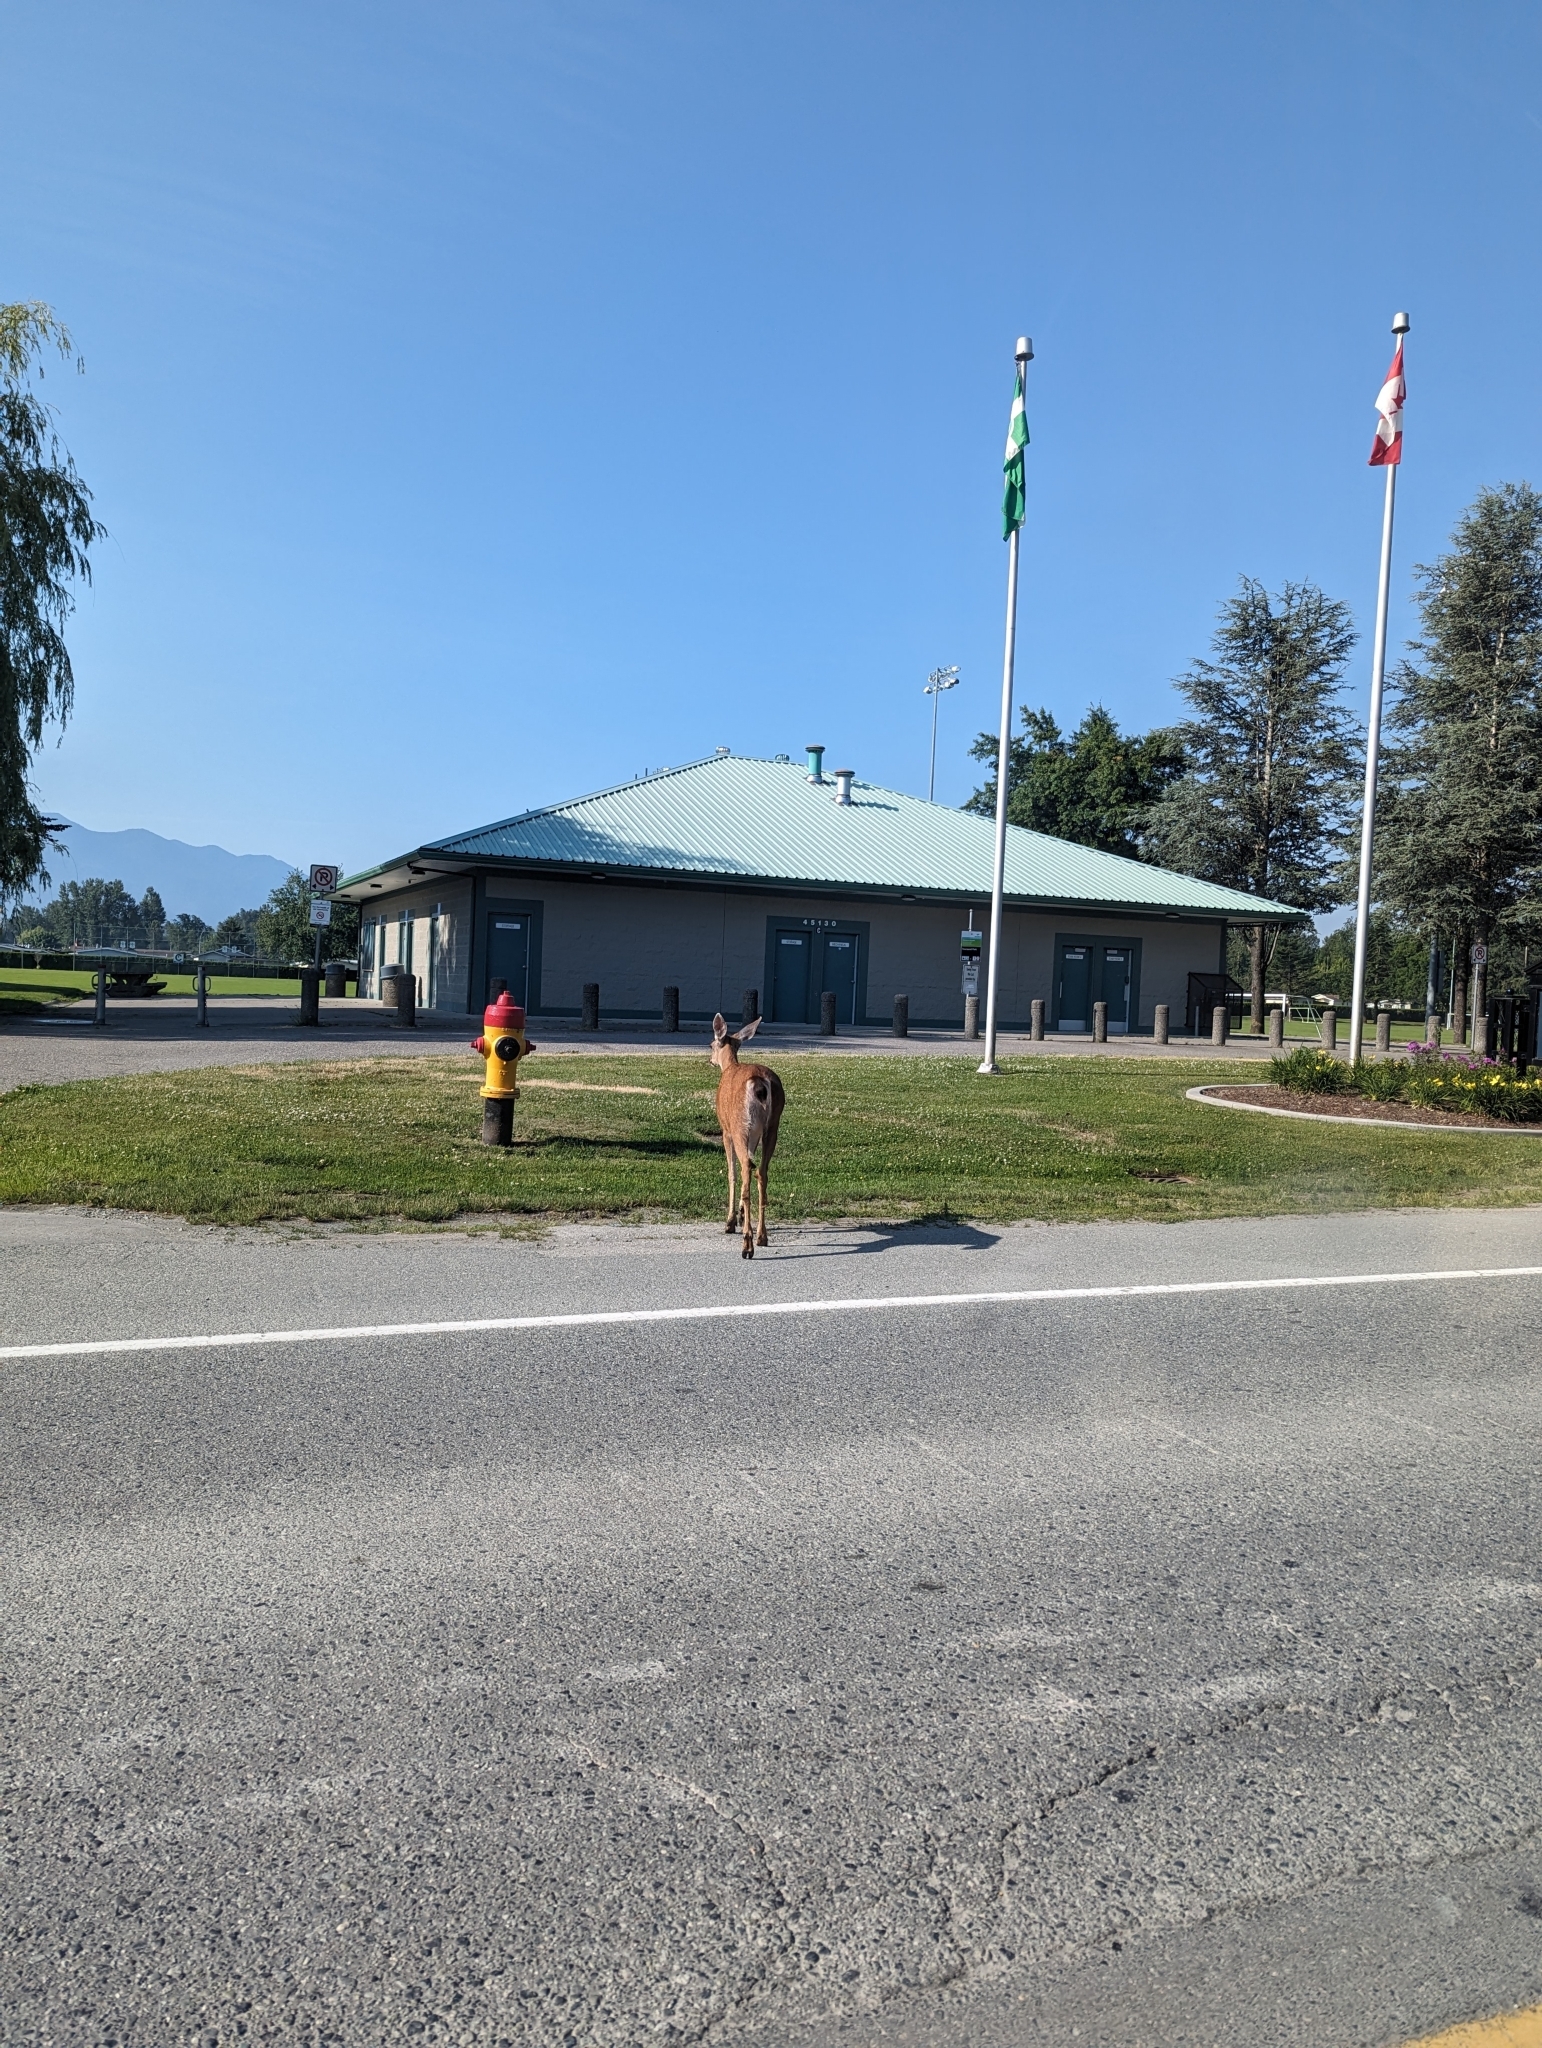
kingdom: Animalia
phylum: Chordata
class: Mammalia
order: Artiodactyla
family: Cervidae
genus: Odocoileus
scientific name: Odocoileus hemionus
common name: Mule deer
